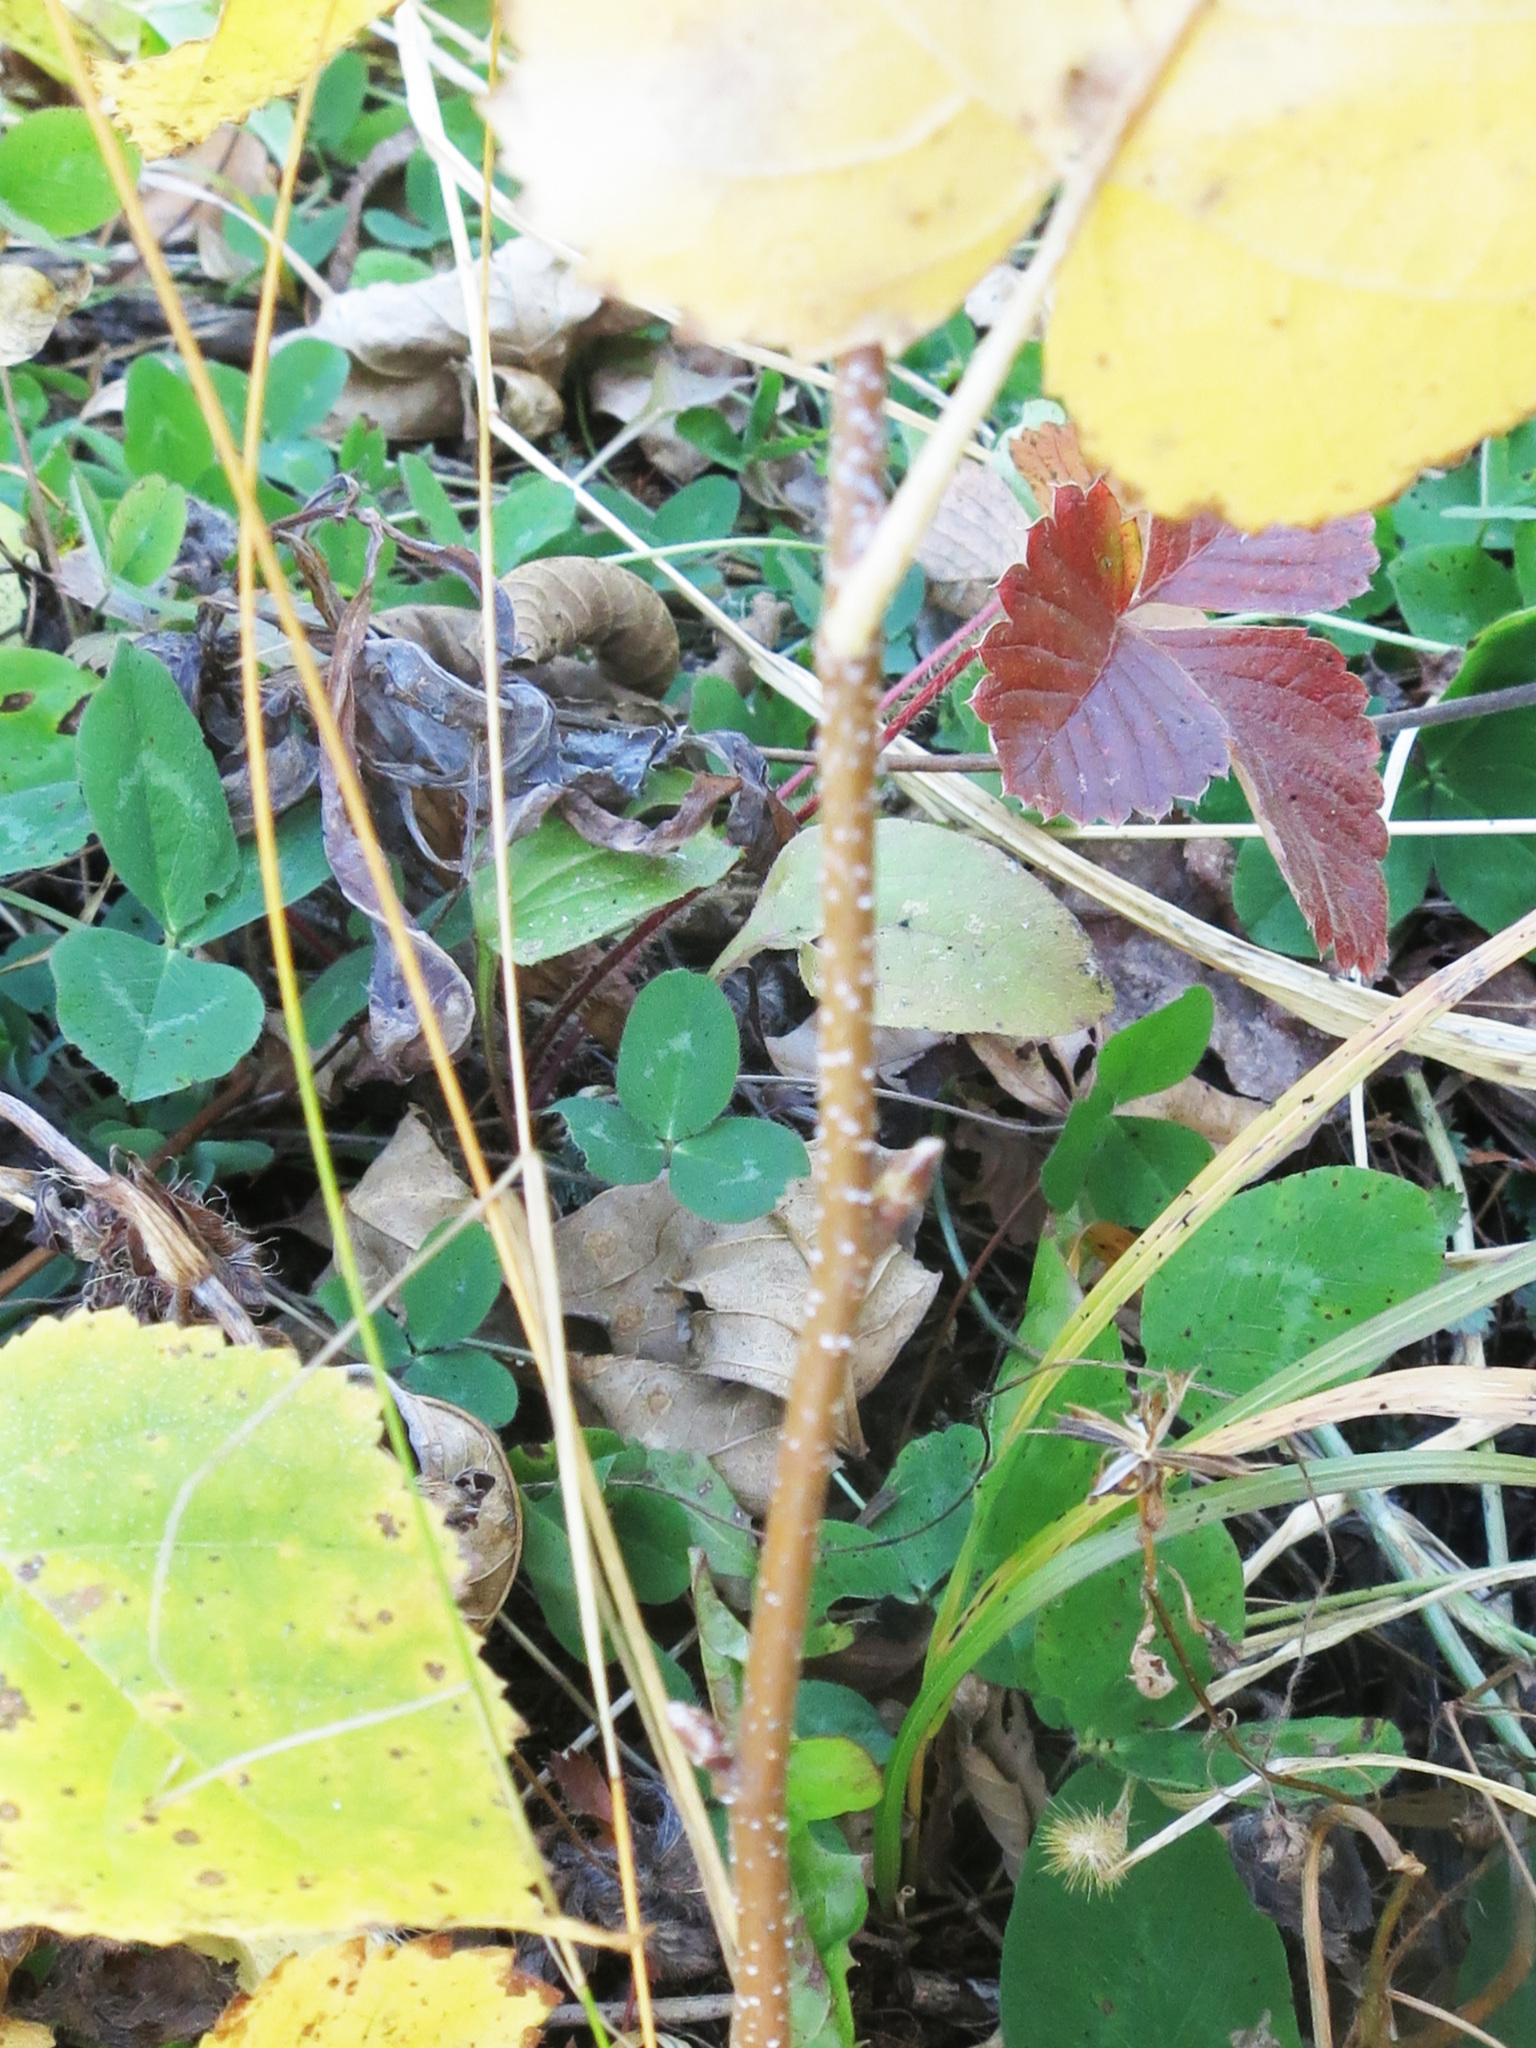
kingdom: Plantae
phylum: Tracheophyta
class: Magnoliopsida
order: Fagales
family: Betulaceae
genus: Betula
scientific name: Betula pendula
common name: Silver birch
